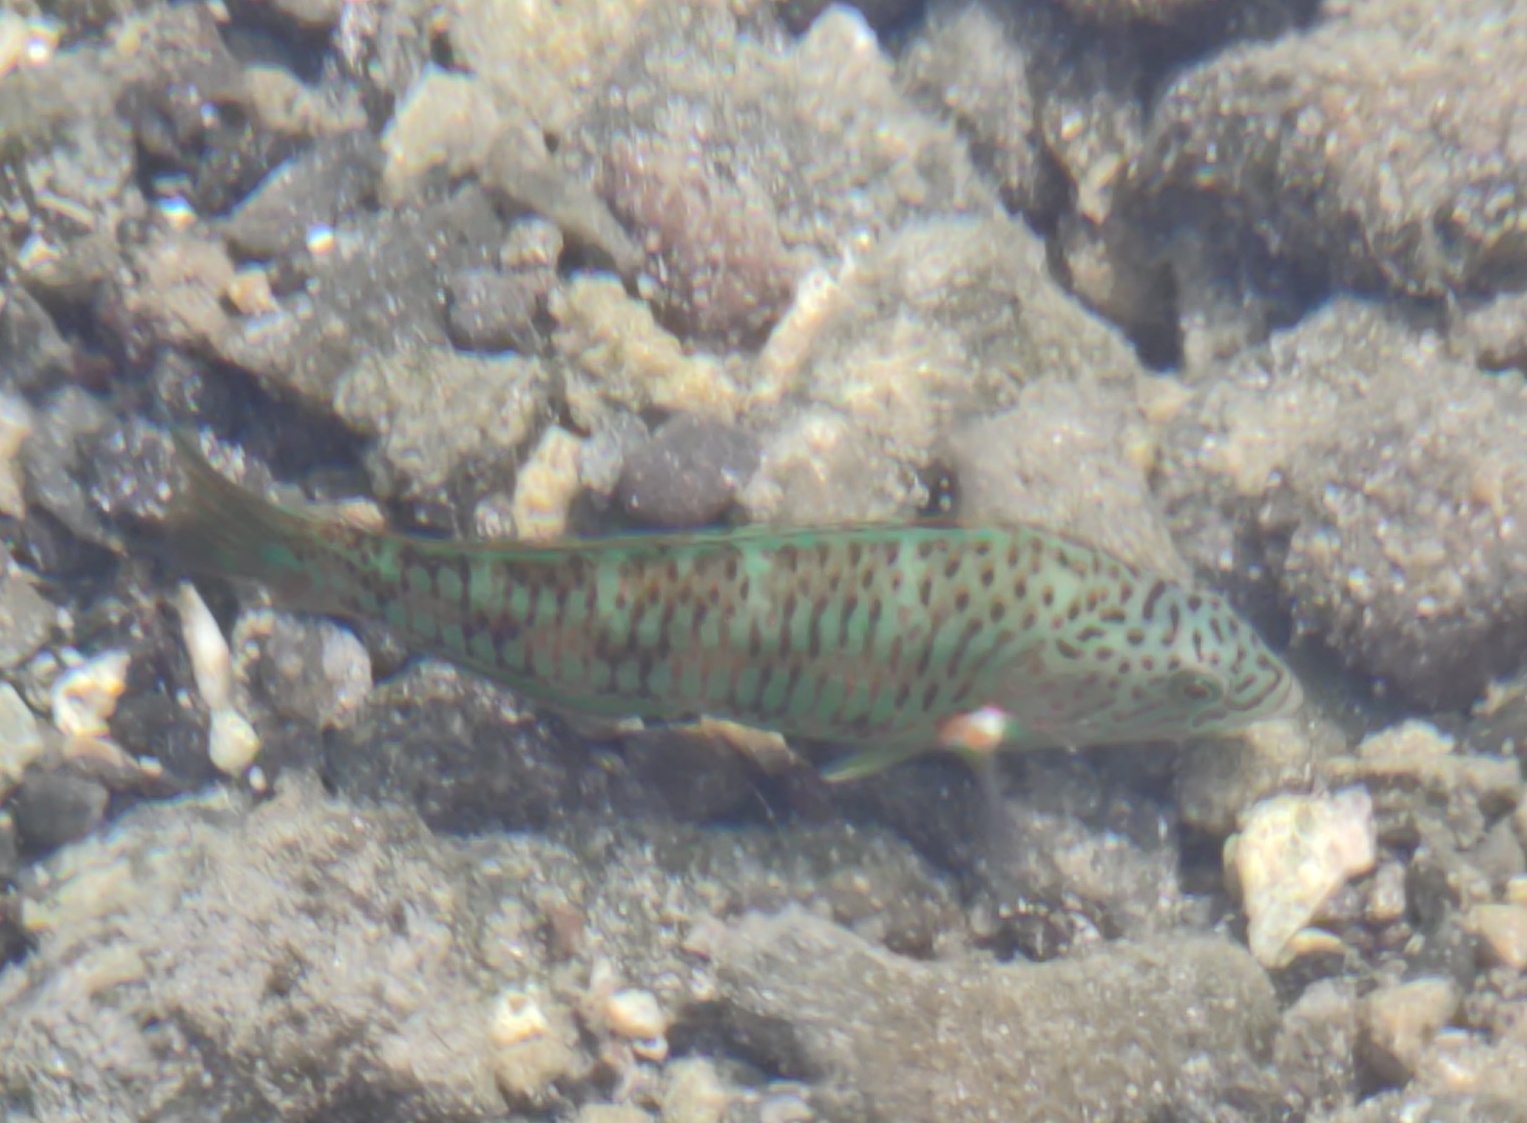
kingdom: Animalia
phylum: Chordata
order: Perciformes
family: Labridae
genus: Thalassoma
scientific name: Thalassoma trilobatum
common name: Christmas wrasse
